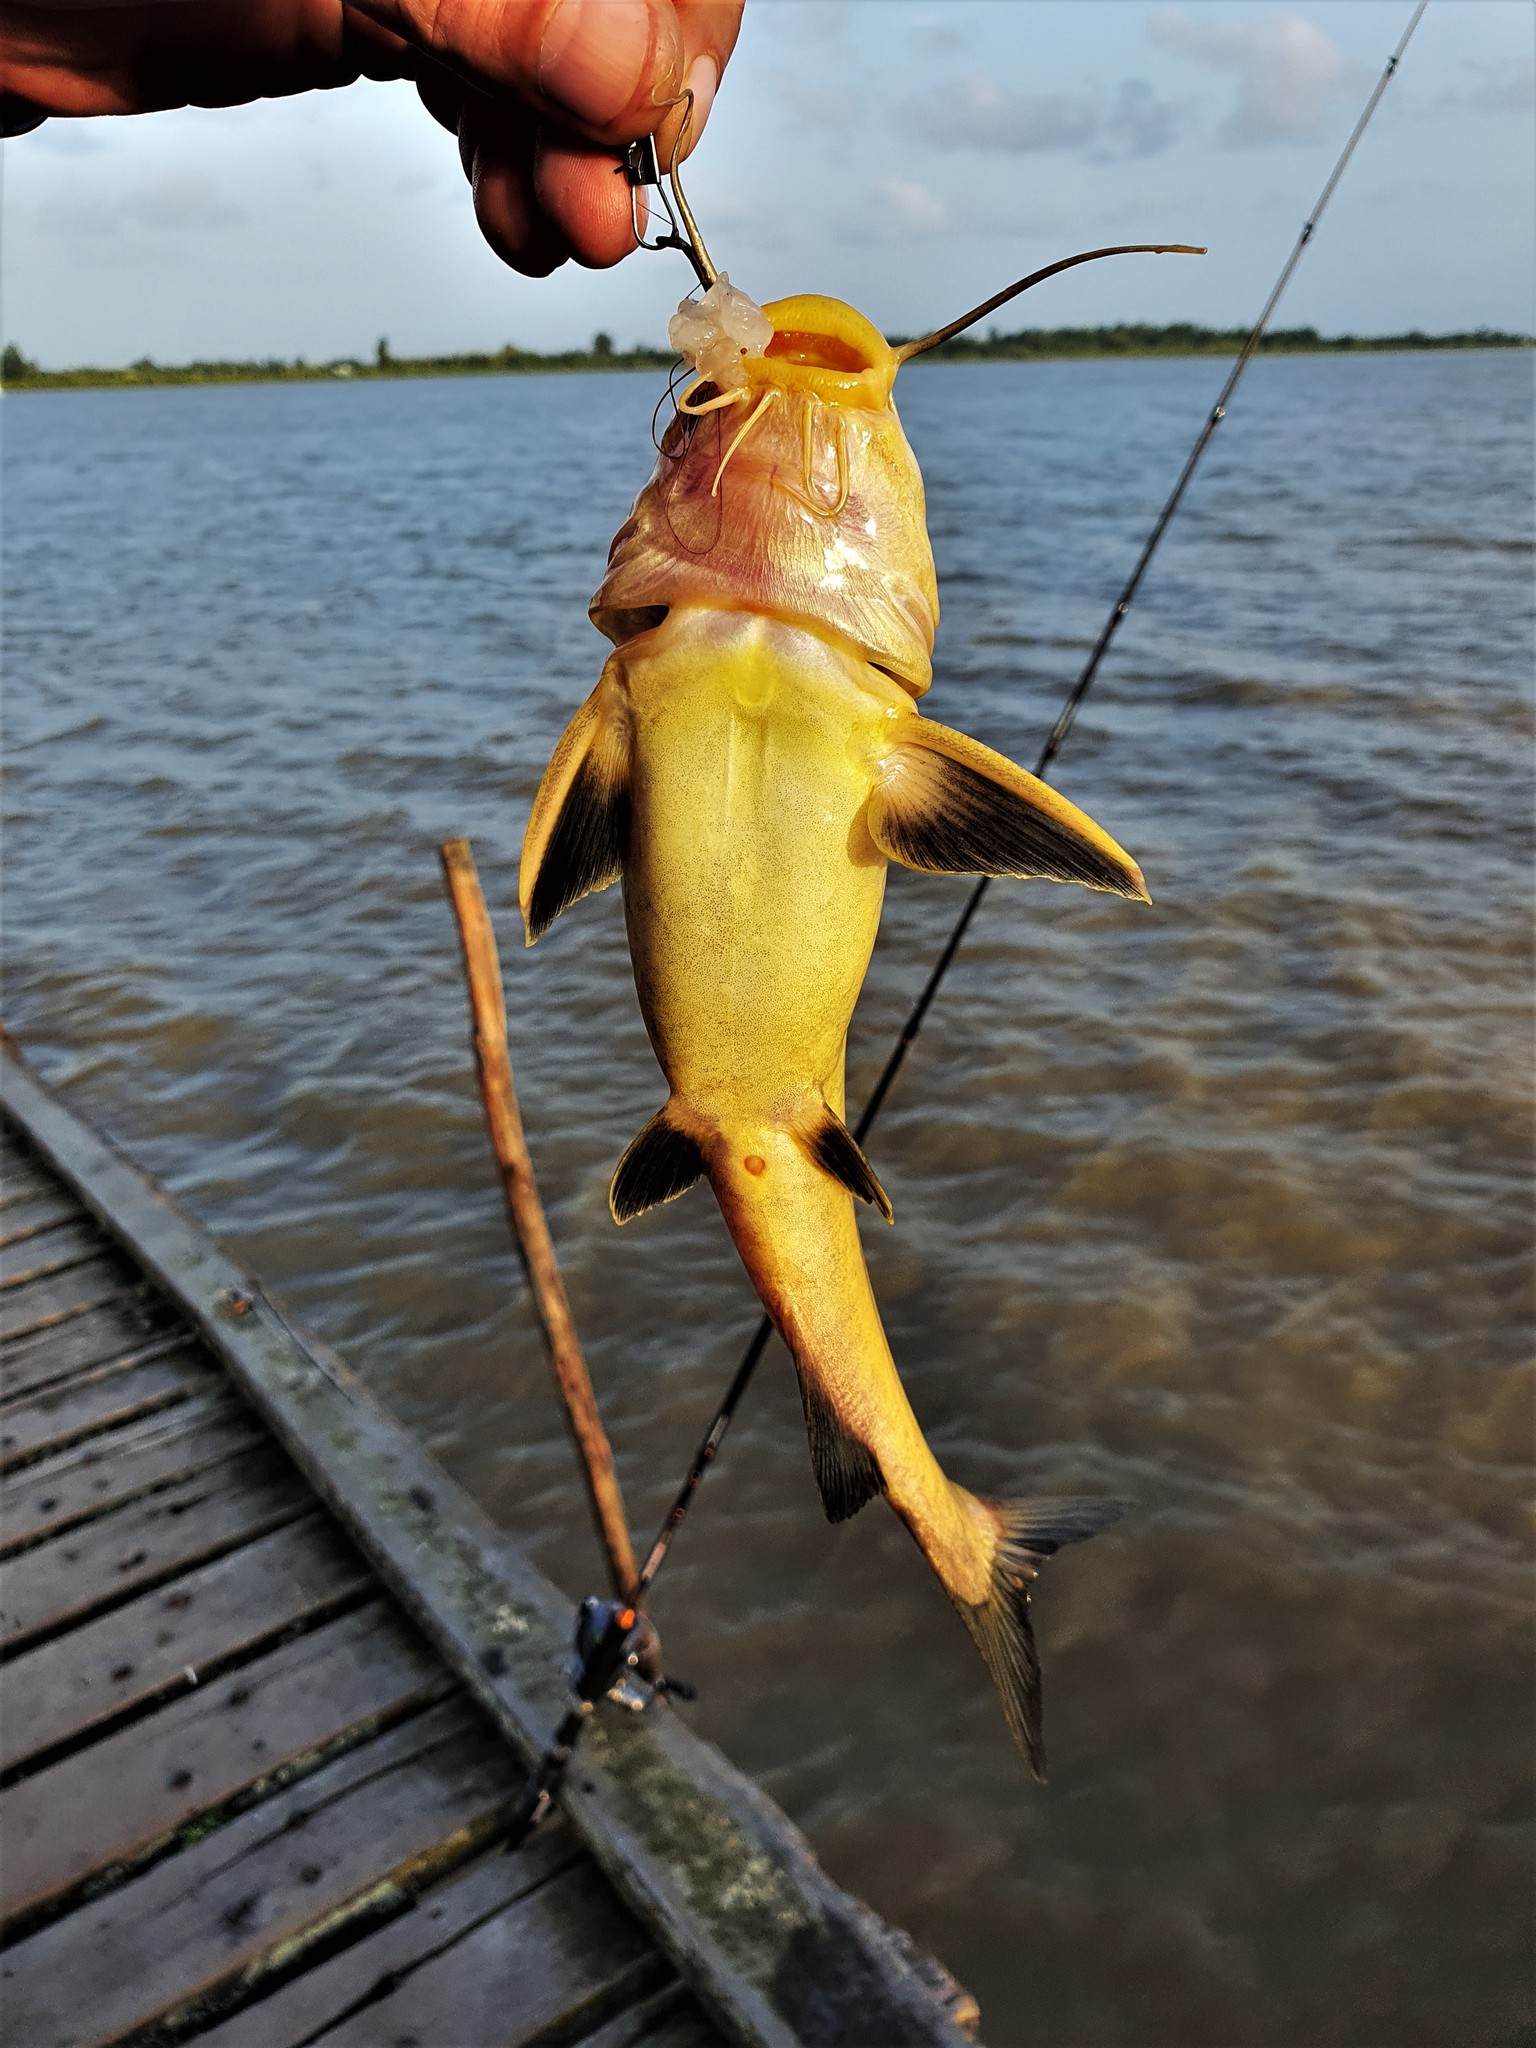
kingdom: Animalia
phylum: Chordata
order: Siluriformes
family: Ariidae
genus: Sciades
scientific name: Sciades parkeri
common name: Geelbuik sea catfish
